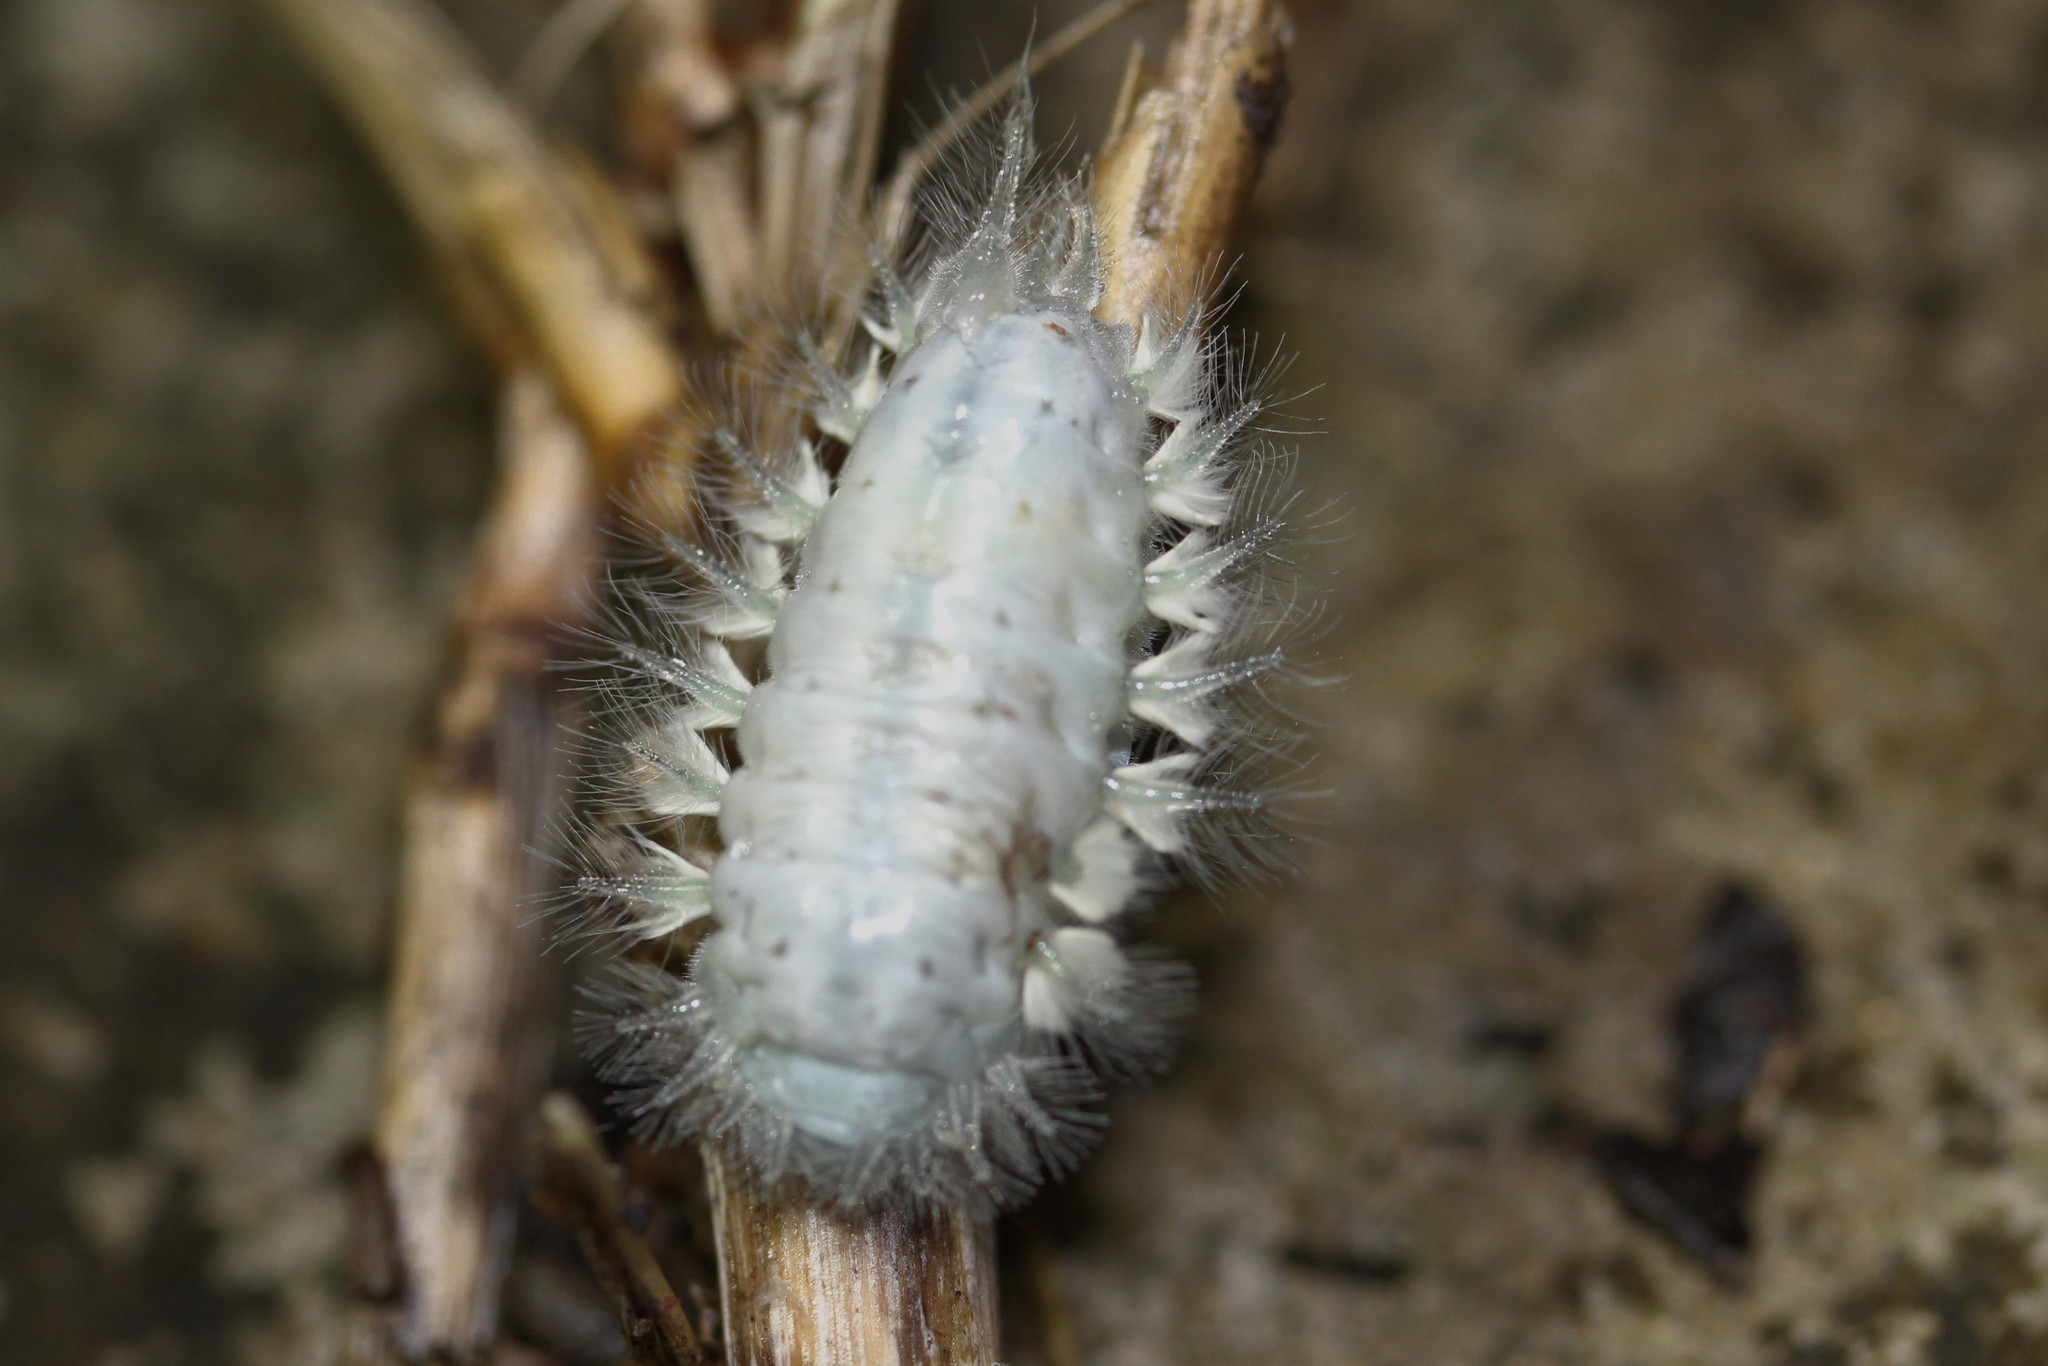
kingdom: Animalia
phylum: Arthropoda
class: Insecta
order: Lepidoptera
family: Limacodidae
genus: Isochaetes
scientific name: Isochaetes
